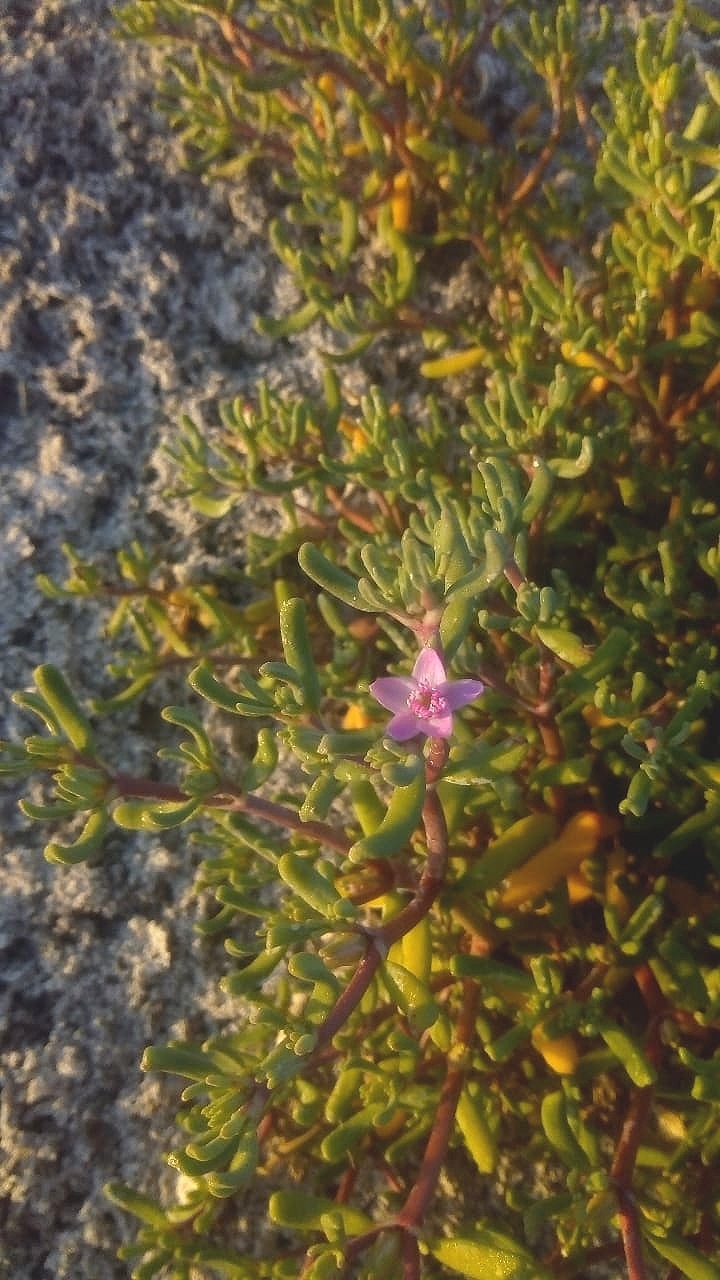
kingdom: Plantae
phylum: Tracheophyta
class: Magnoliopsida
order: Caryophyllales
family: Aizoaceae
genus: Sesuvium
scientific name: Sesuvium portulacastrum
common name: Sea-purslane
